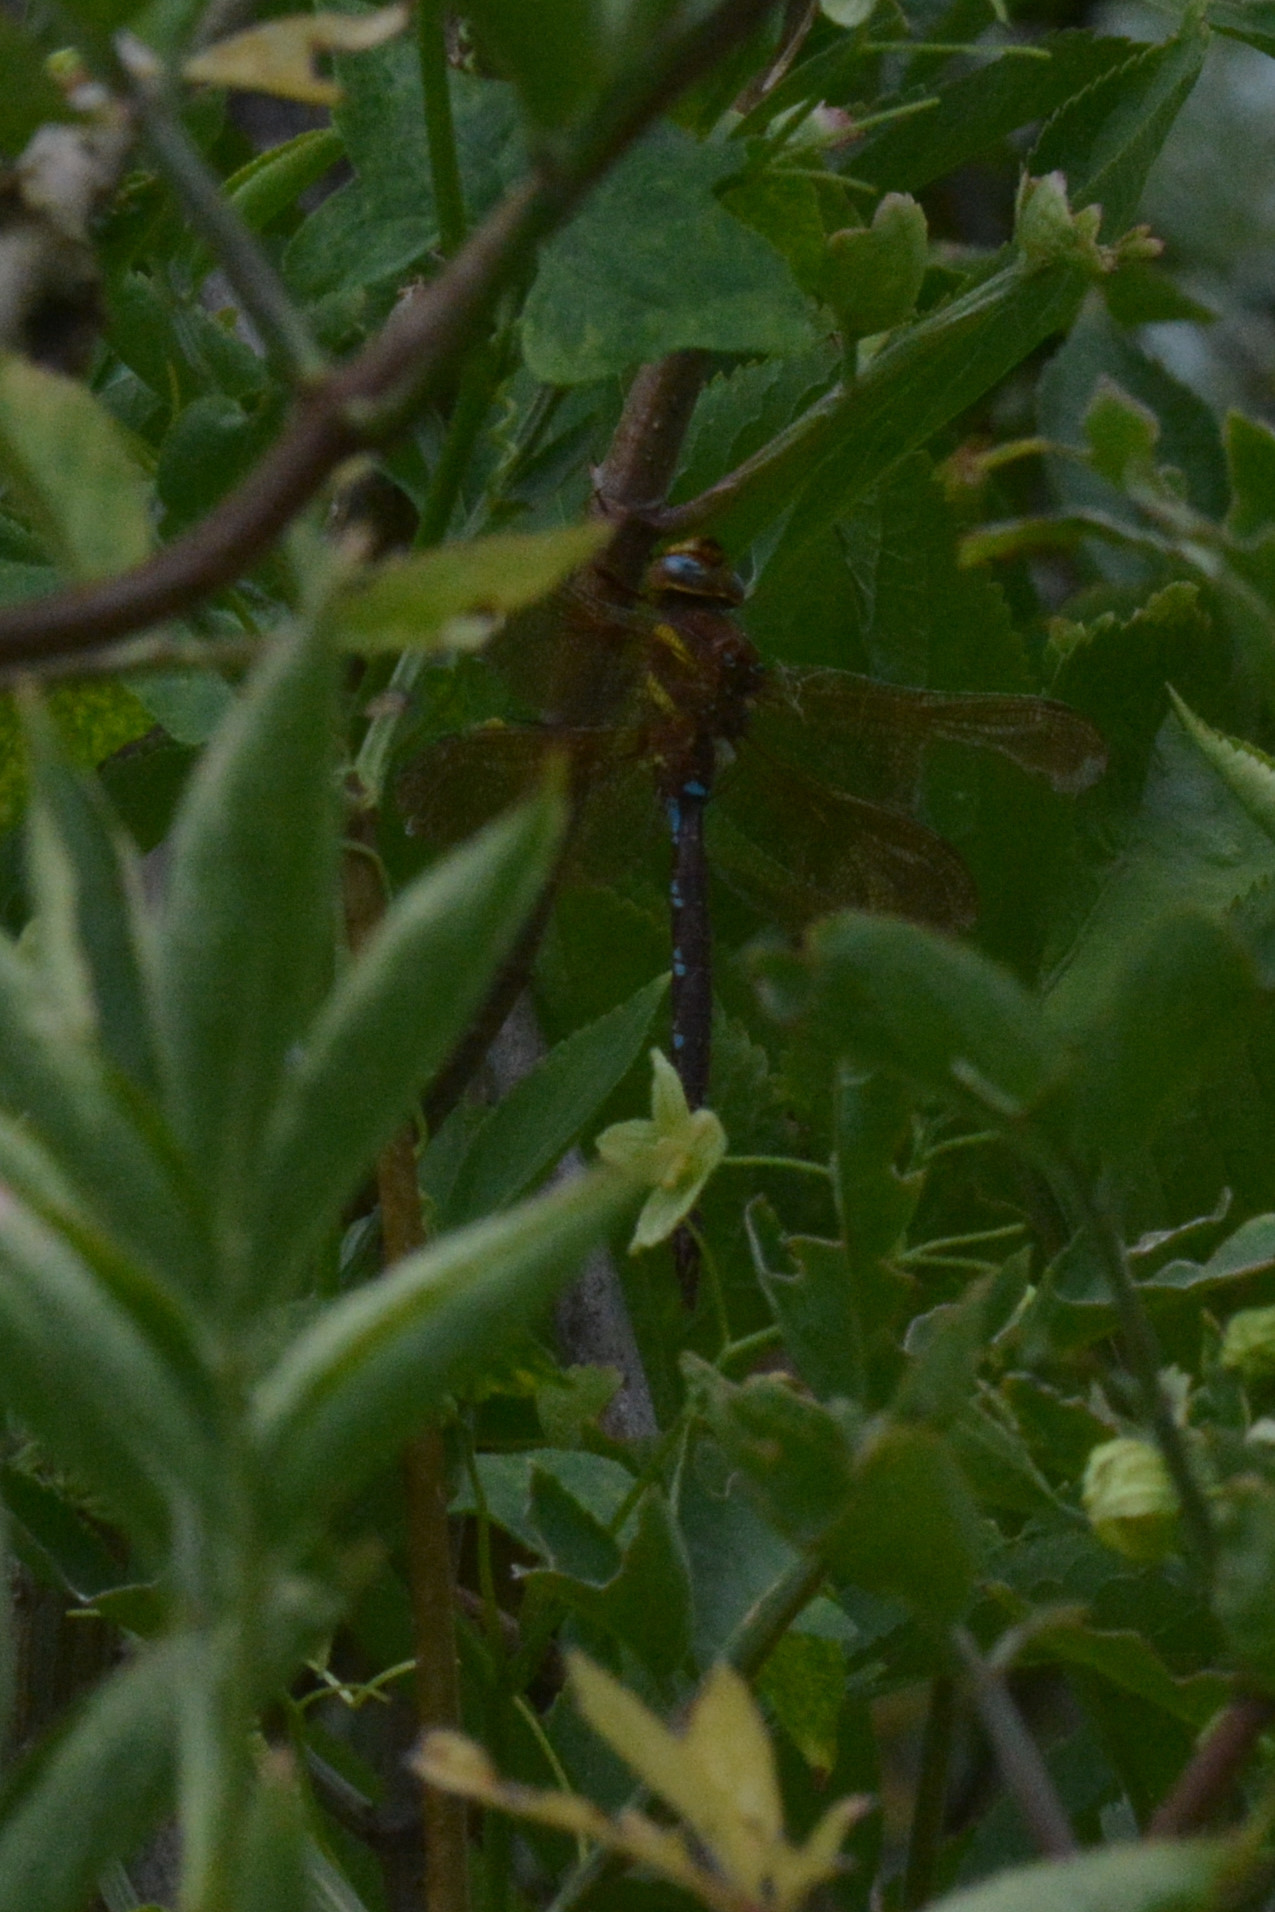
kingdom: Animalia
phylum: Arthropoda
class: Insecta
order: Odonata
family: Aeshnidae
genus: Aeshna
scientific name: Aeshna grandis
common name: Brown hawker
